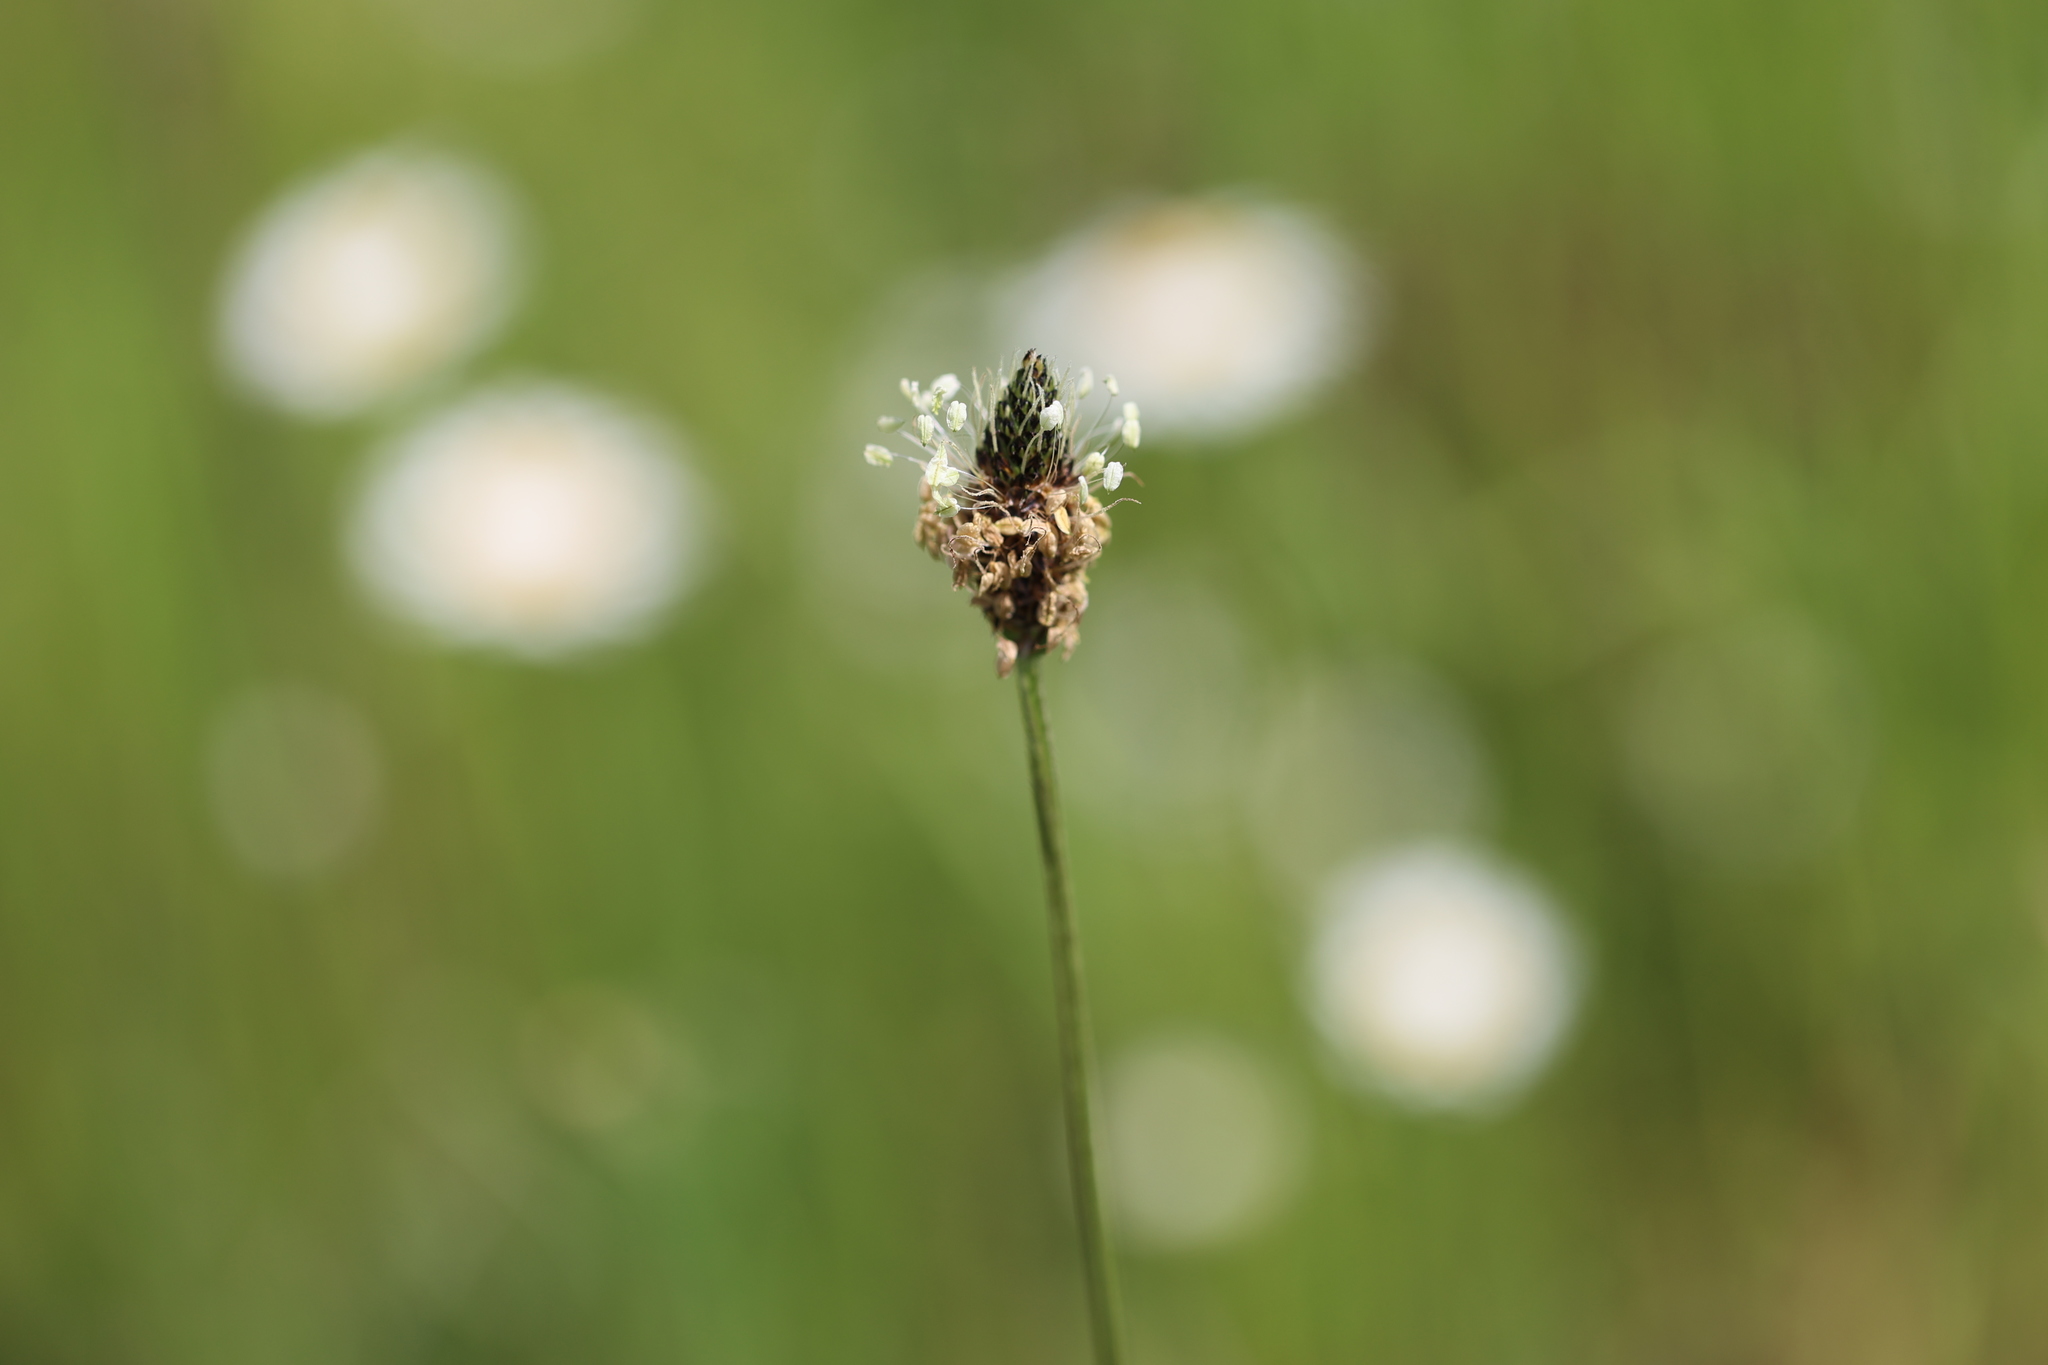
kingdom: Plantae
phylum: Tracheophyta
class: Magnoliopsida
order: Lamiales
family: Plantaginaceae
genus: Plantago
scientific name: Plantago lanceolata
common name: Ribwort plantain
